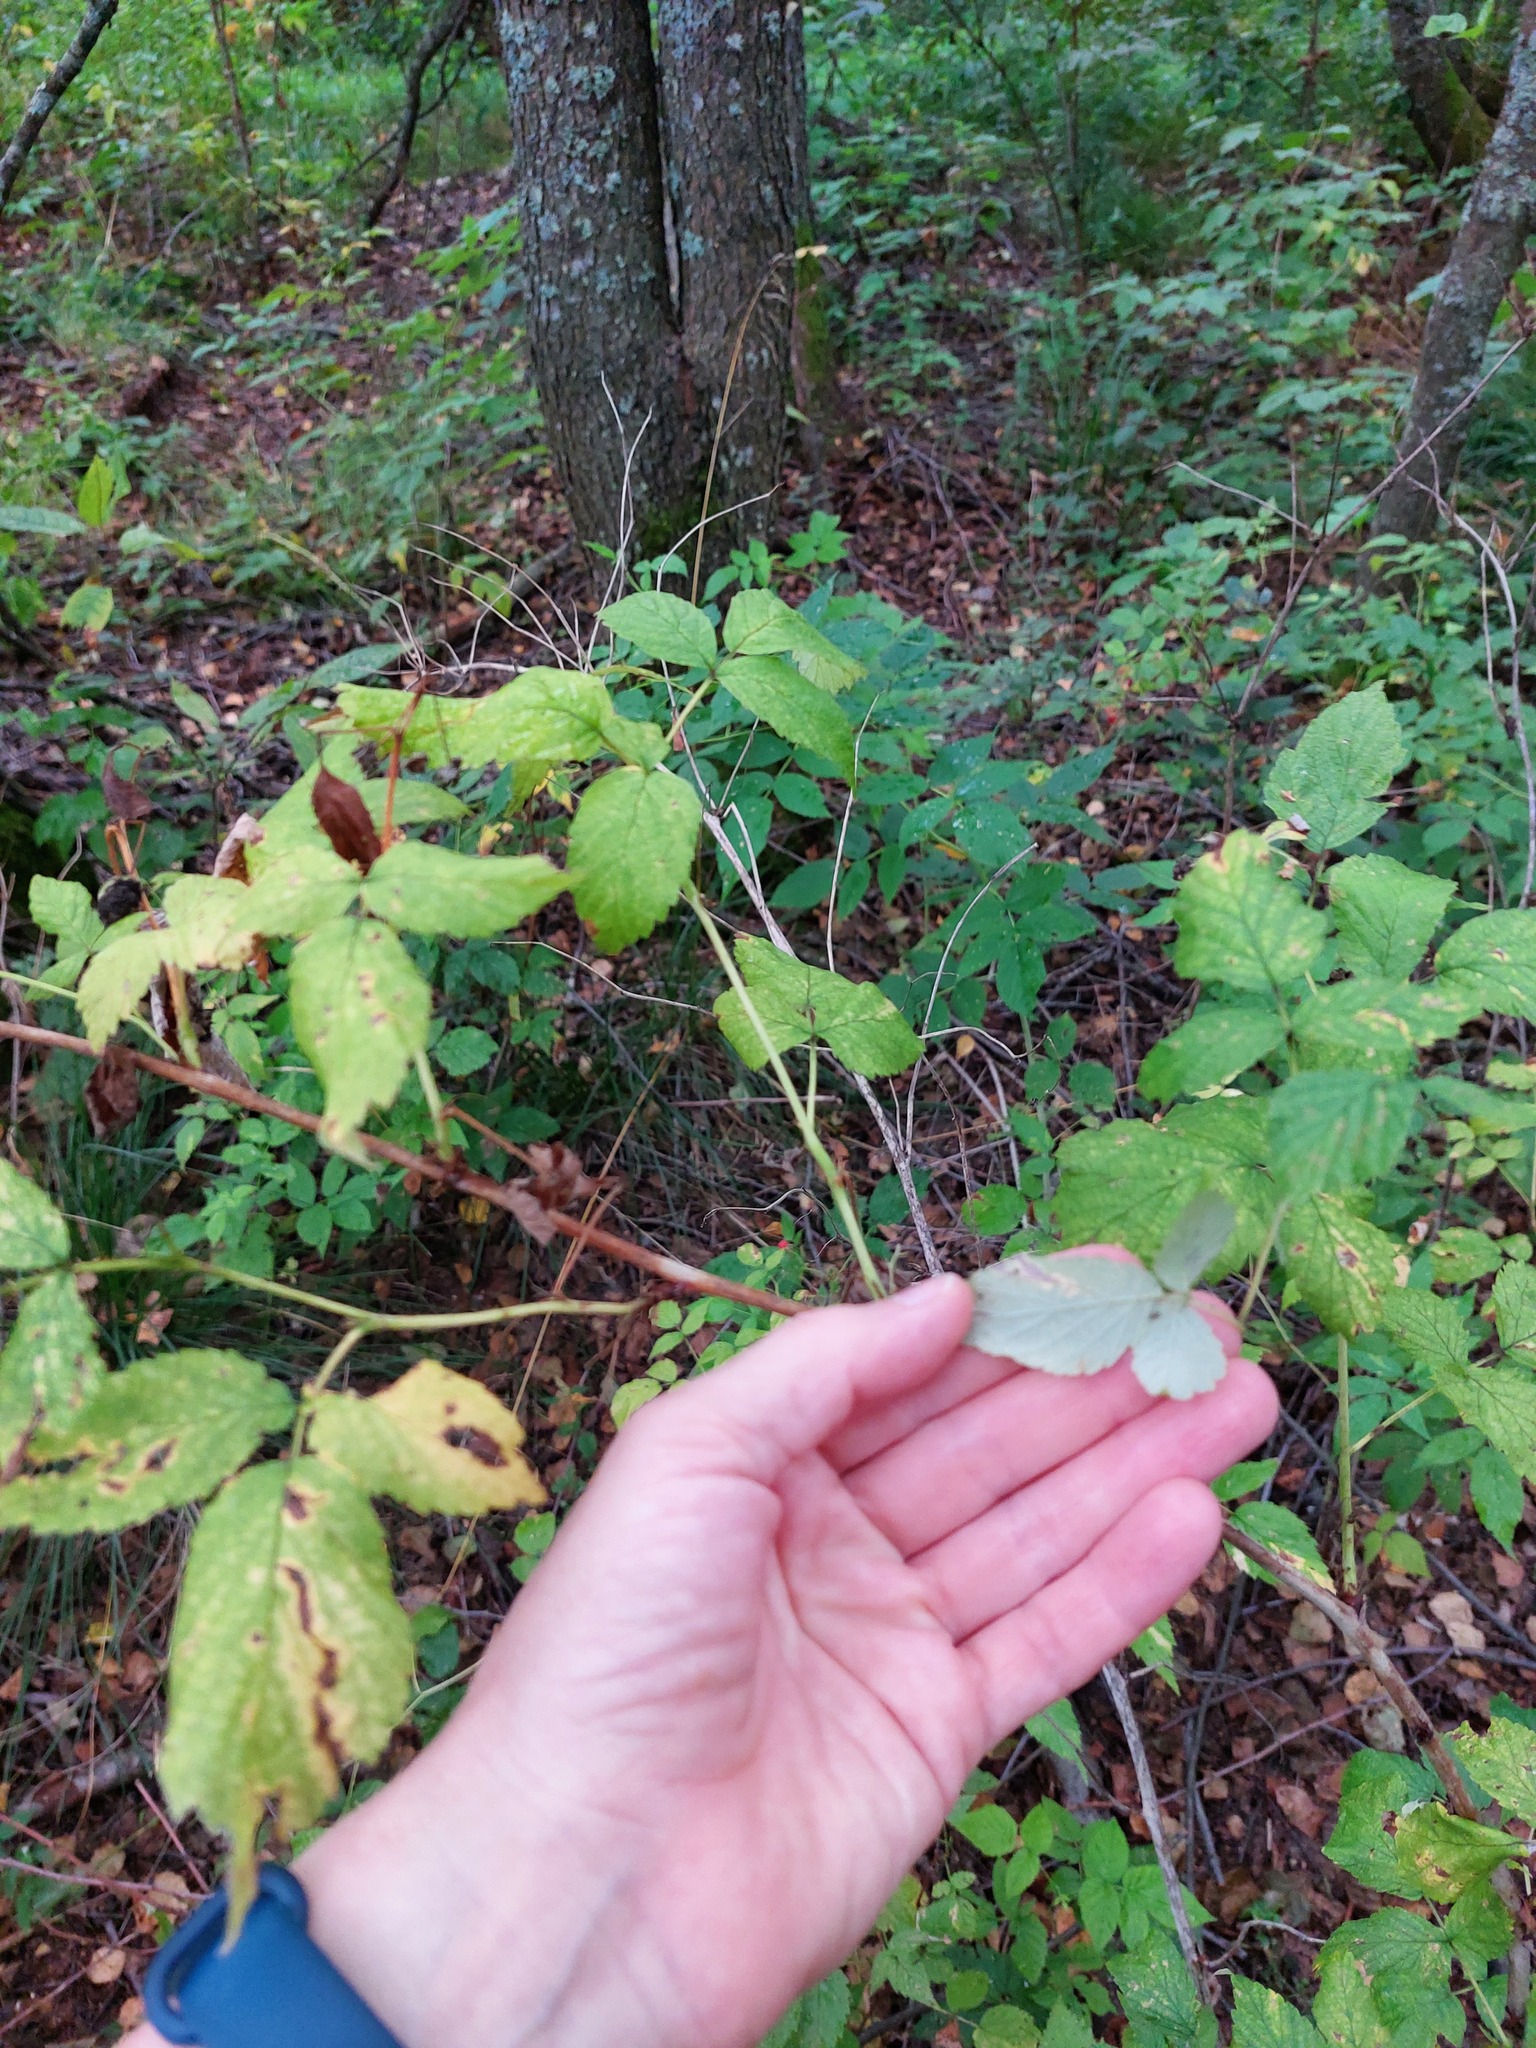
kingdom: Plantae
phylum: Tracheophyta
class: Magnoliopsida
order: Rosales
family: Rosaceae
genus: Rubus
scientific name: Rubus idaeus
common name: Raspberry
